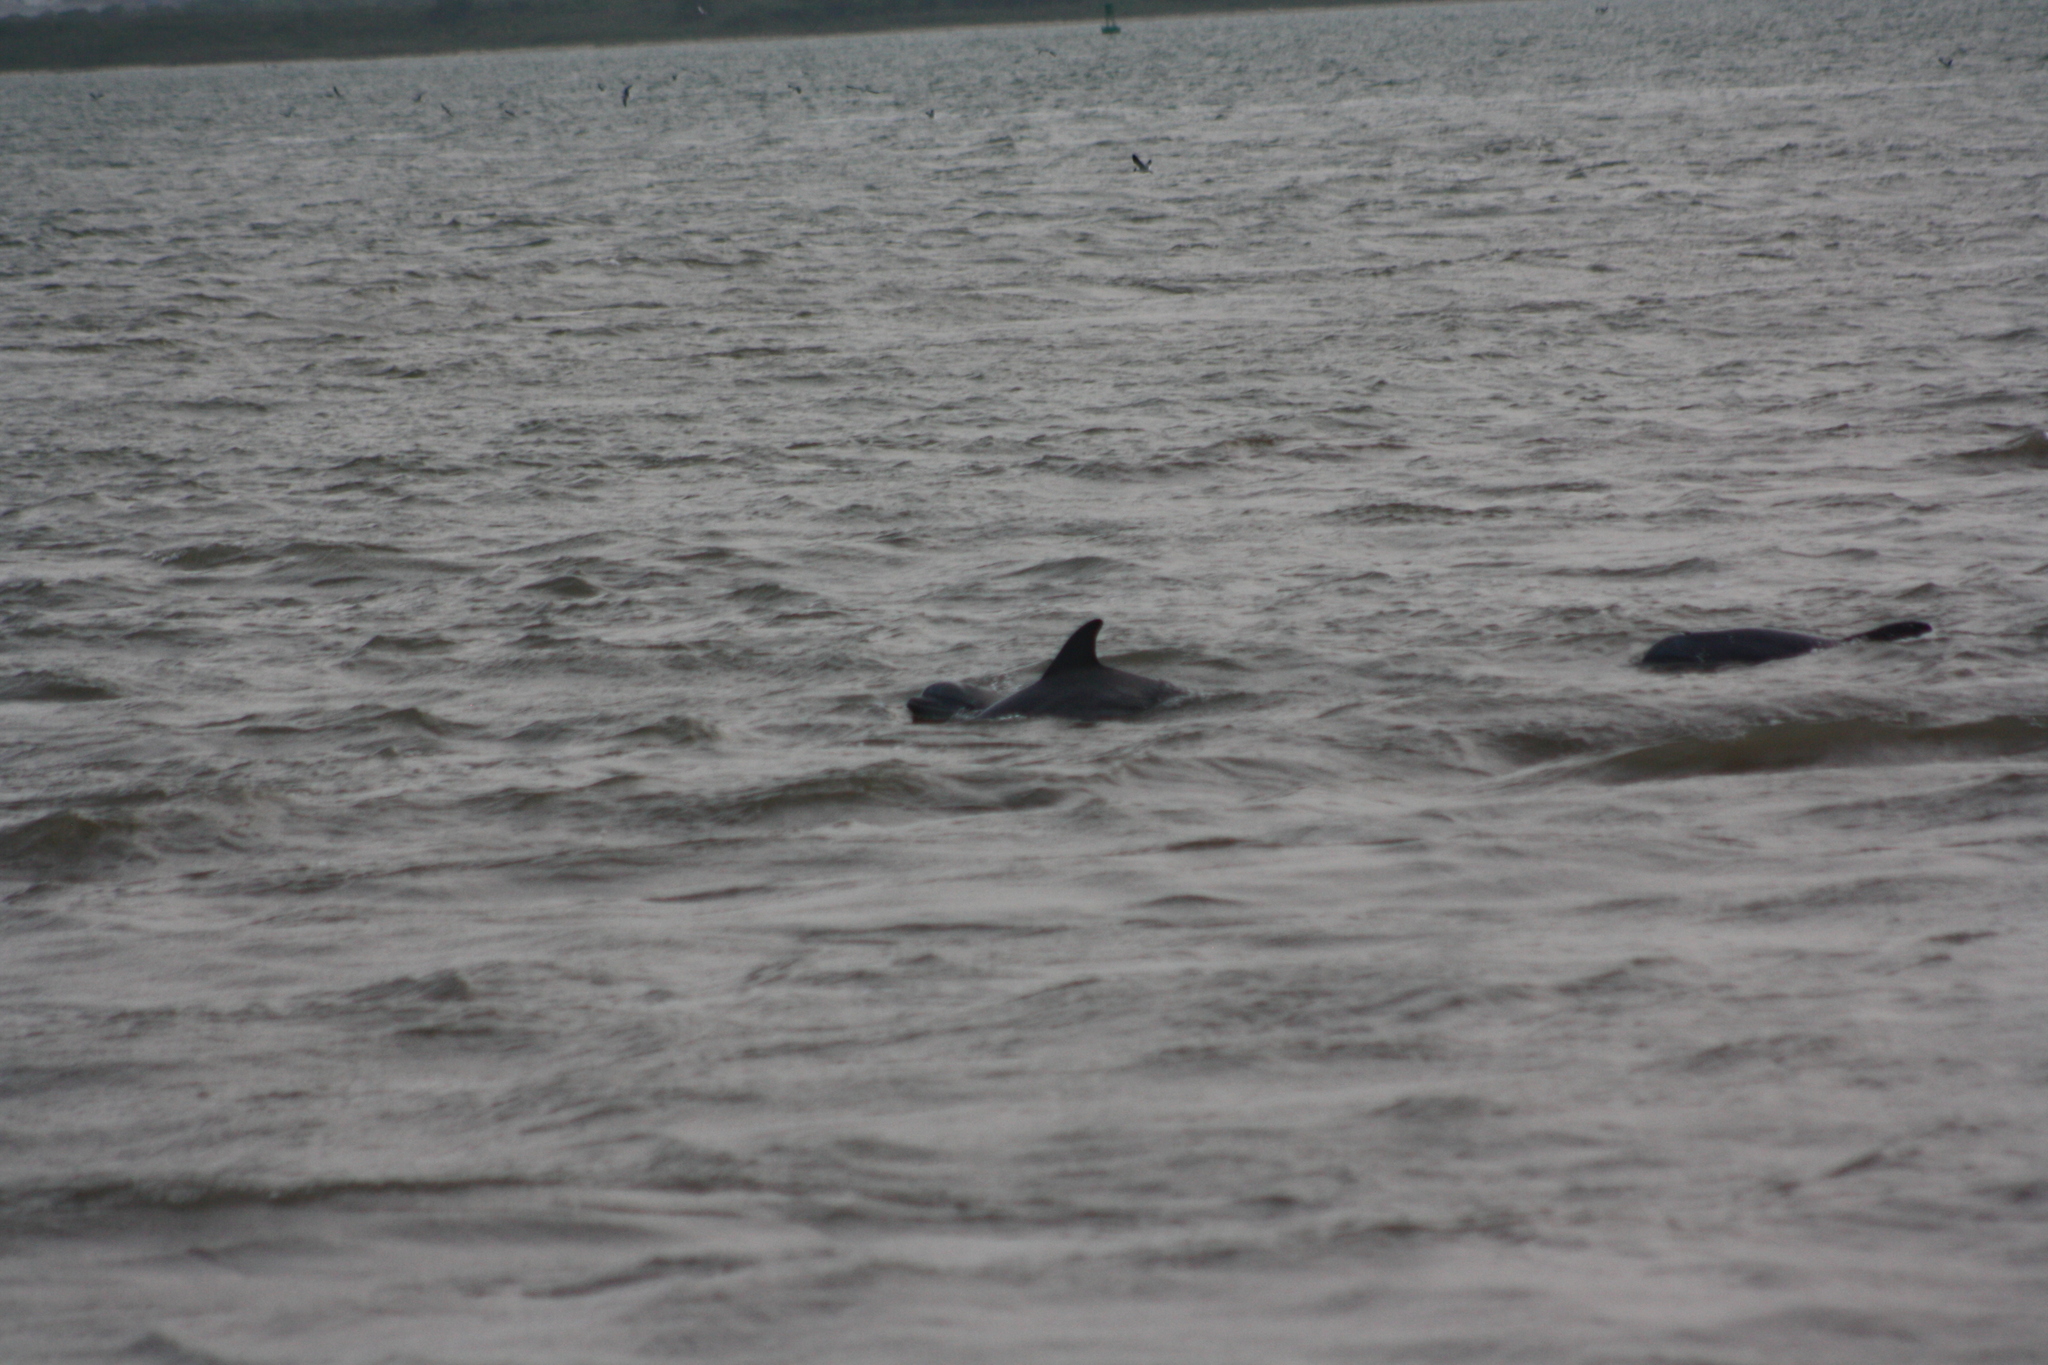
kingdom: Animalia
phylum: Chordata
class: Mammalia
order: Cetacea
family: Delphinidae
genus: Tursiops
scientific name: Tursiops truncatus
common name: Bottlenose dolphin
